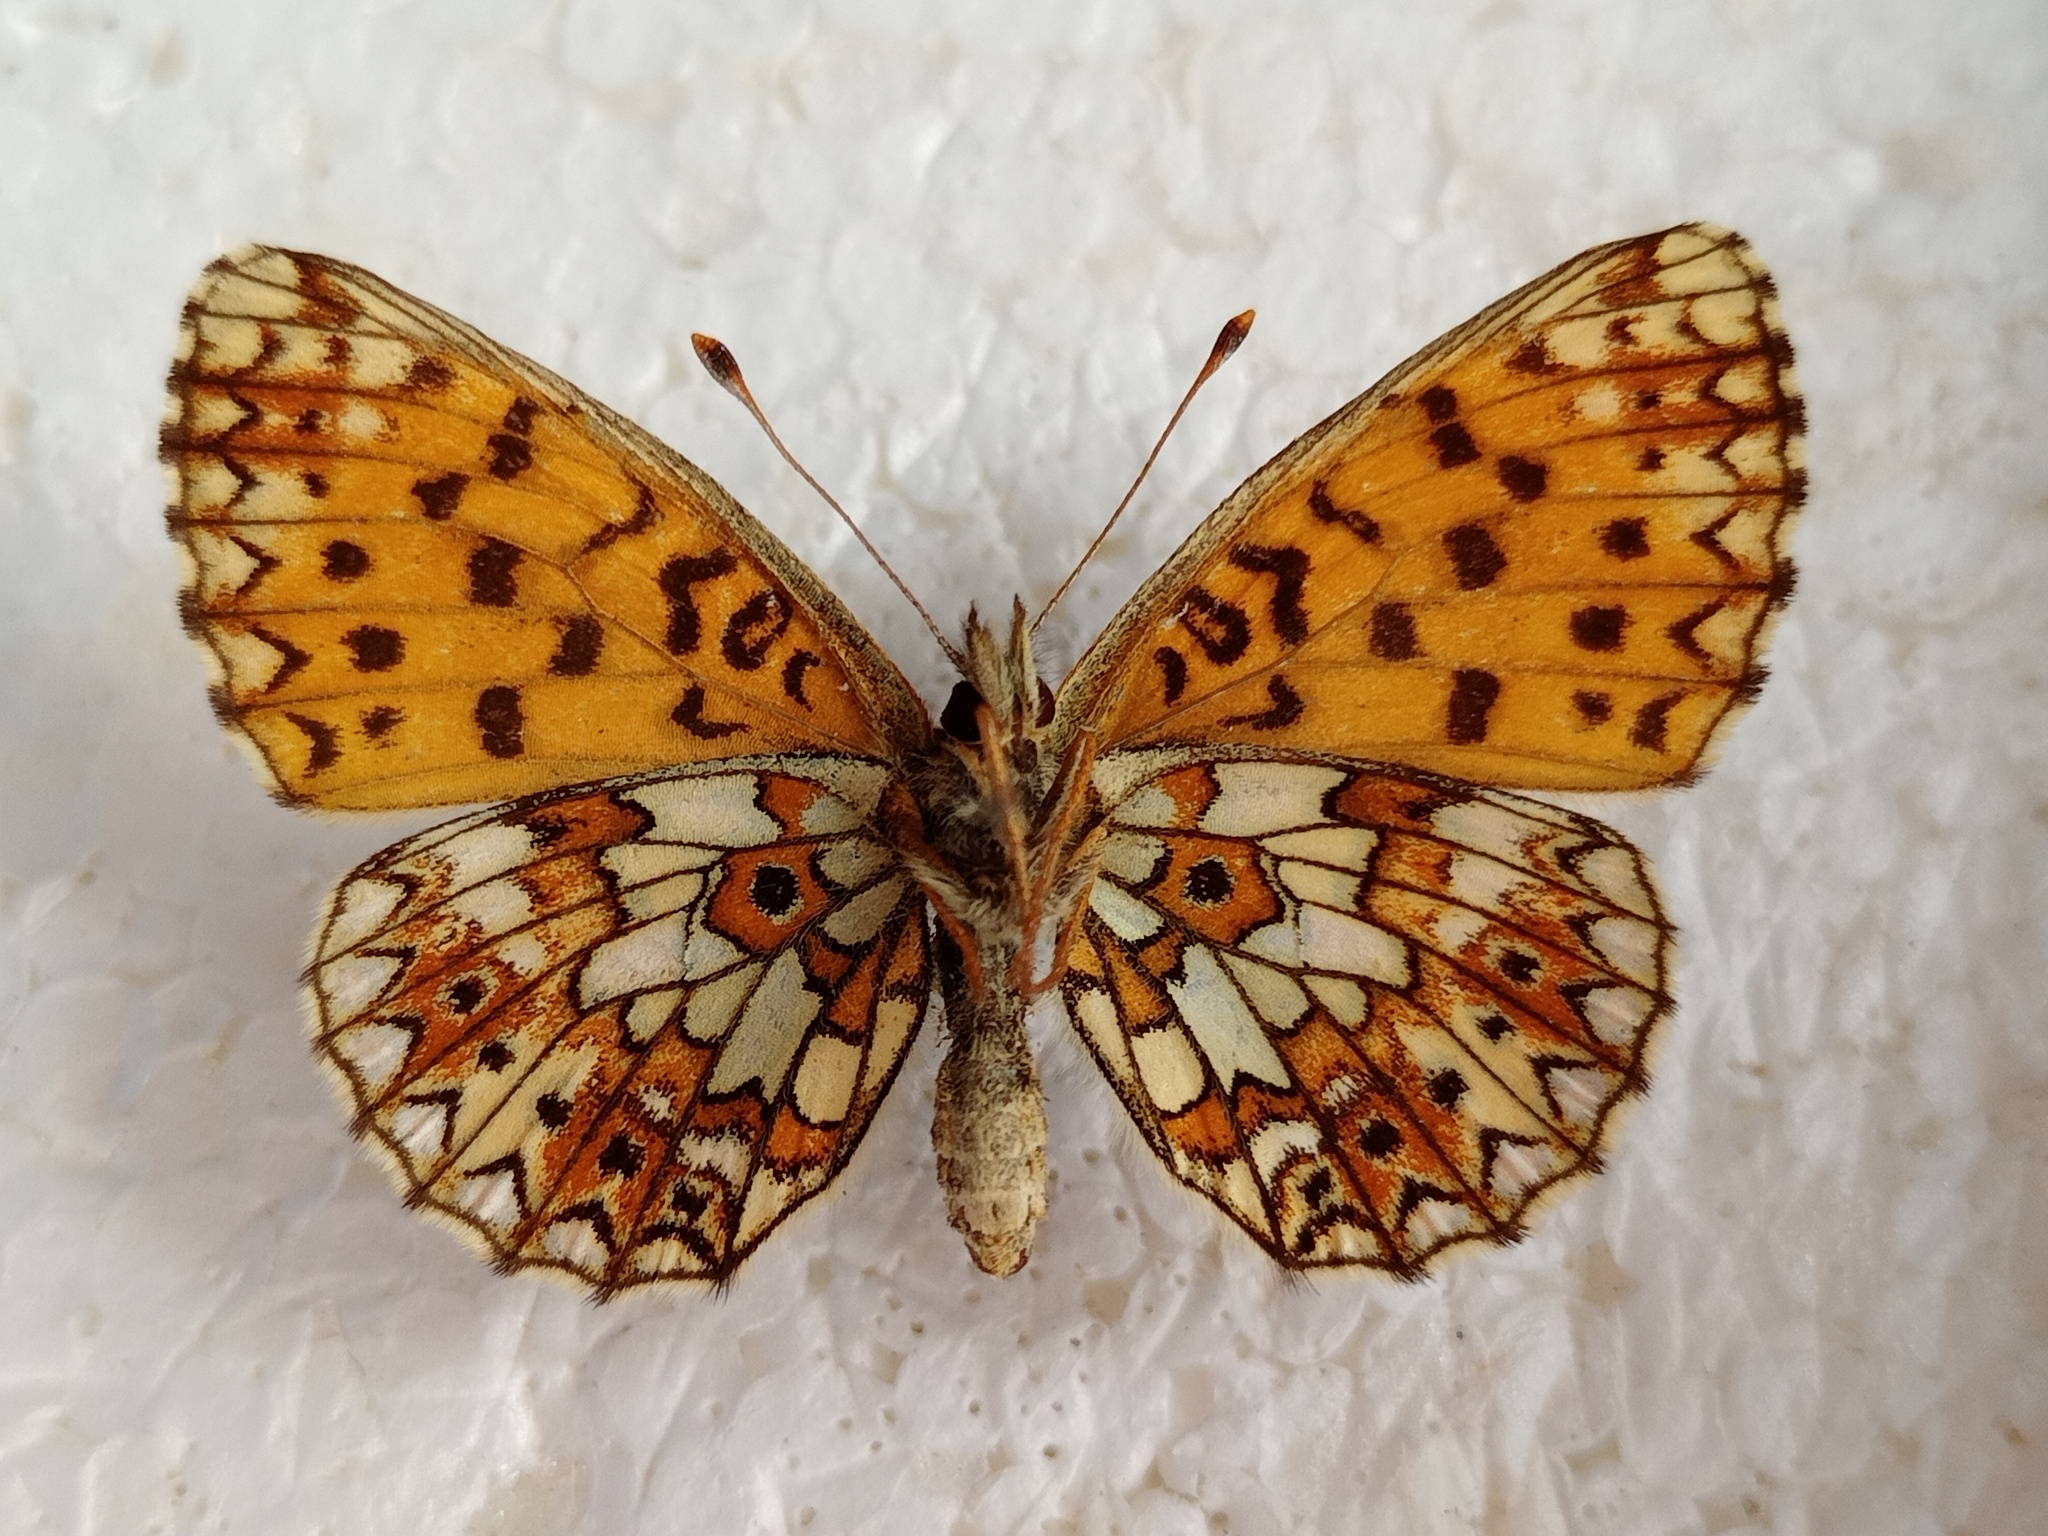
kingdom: Animalia
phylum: Arthropoda
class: Insecta
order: Lepidoptera
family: Nymphalidae
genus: Boloria
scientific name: Boloria selene
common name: Small pearl-bordered fritillary
